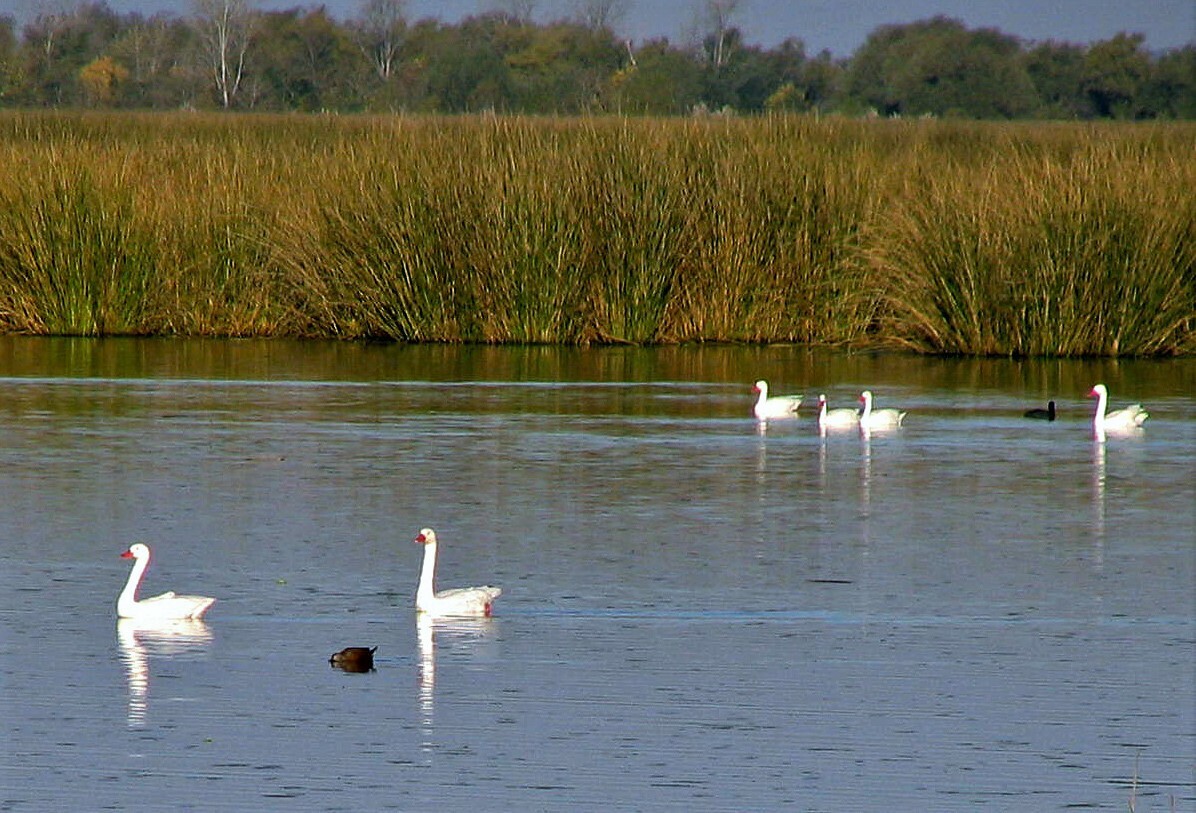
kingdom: Animalia
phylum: Chordata
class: Aves
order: Anseriformes
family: Anatidae
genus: Coscoroba
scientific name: Coscoroba coscoroba
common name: Coscoroba swan
